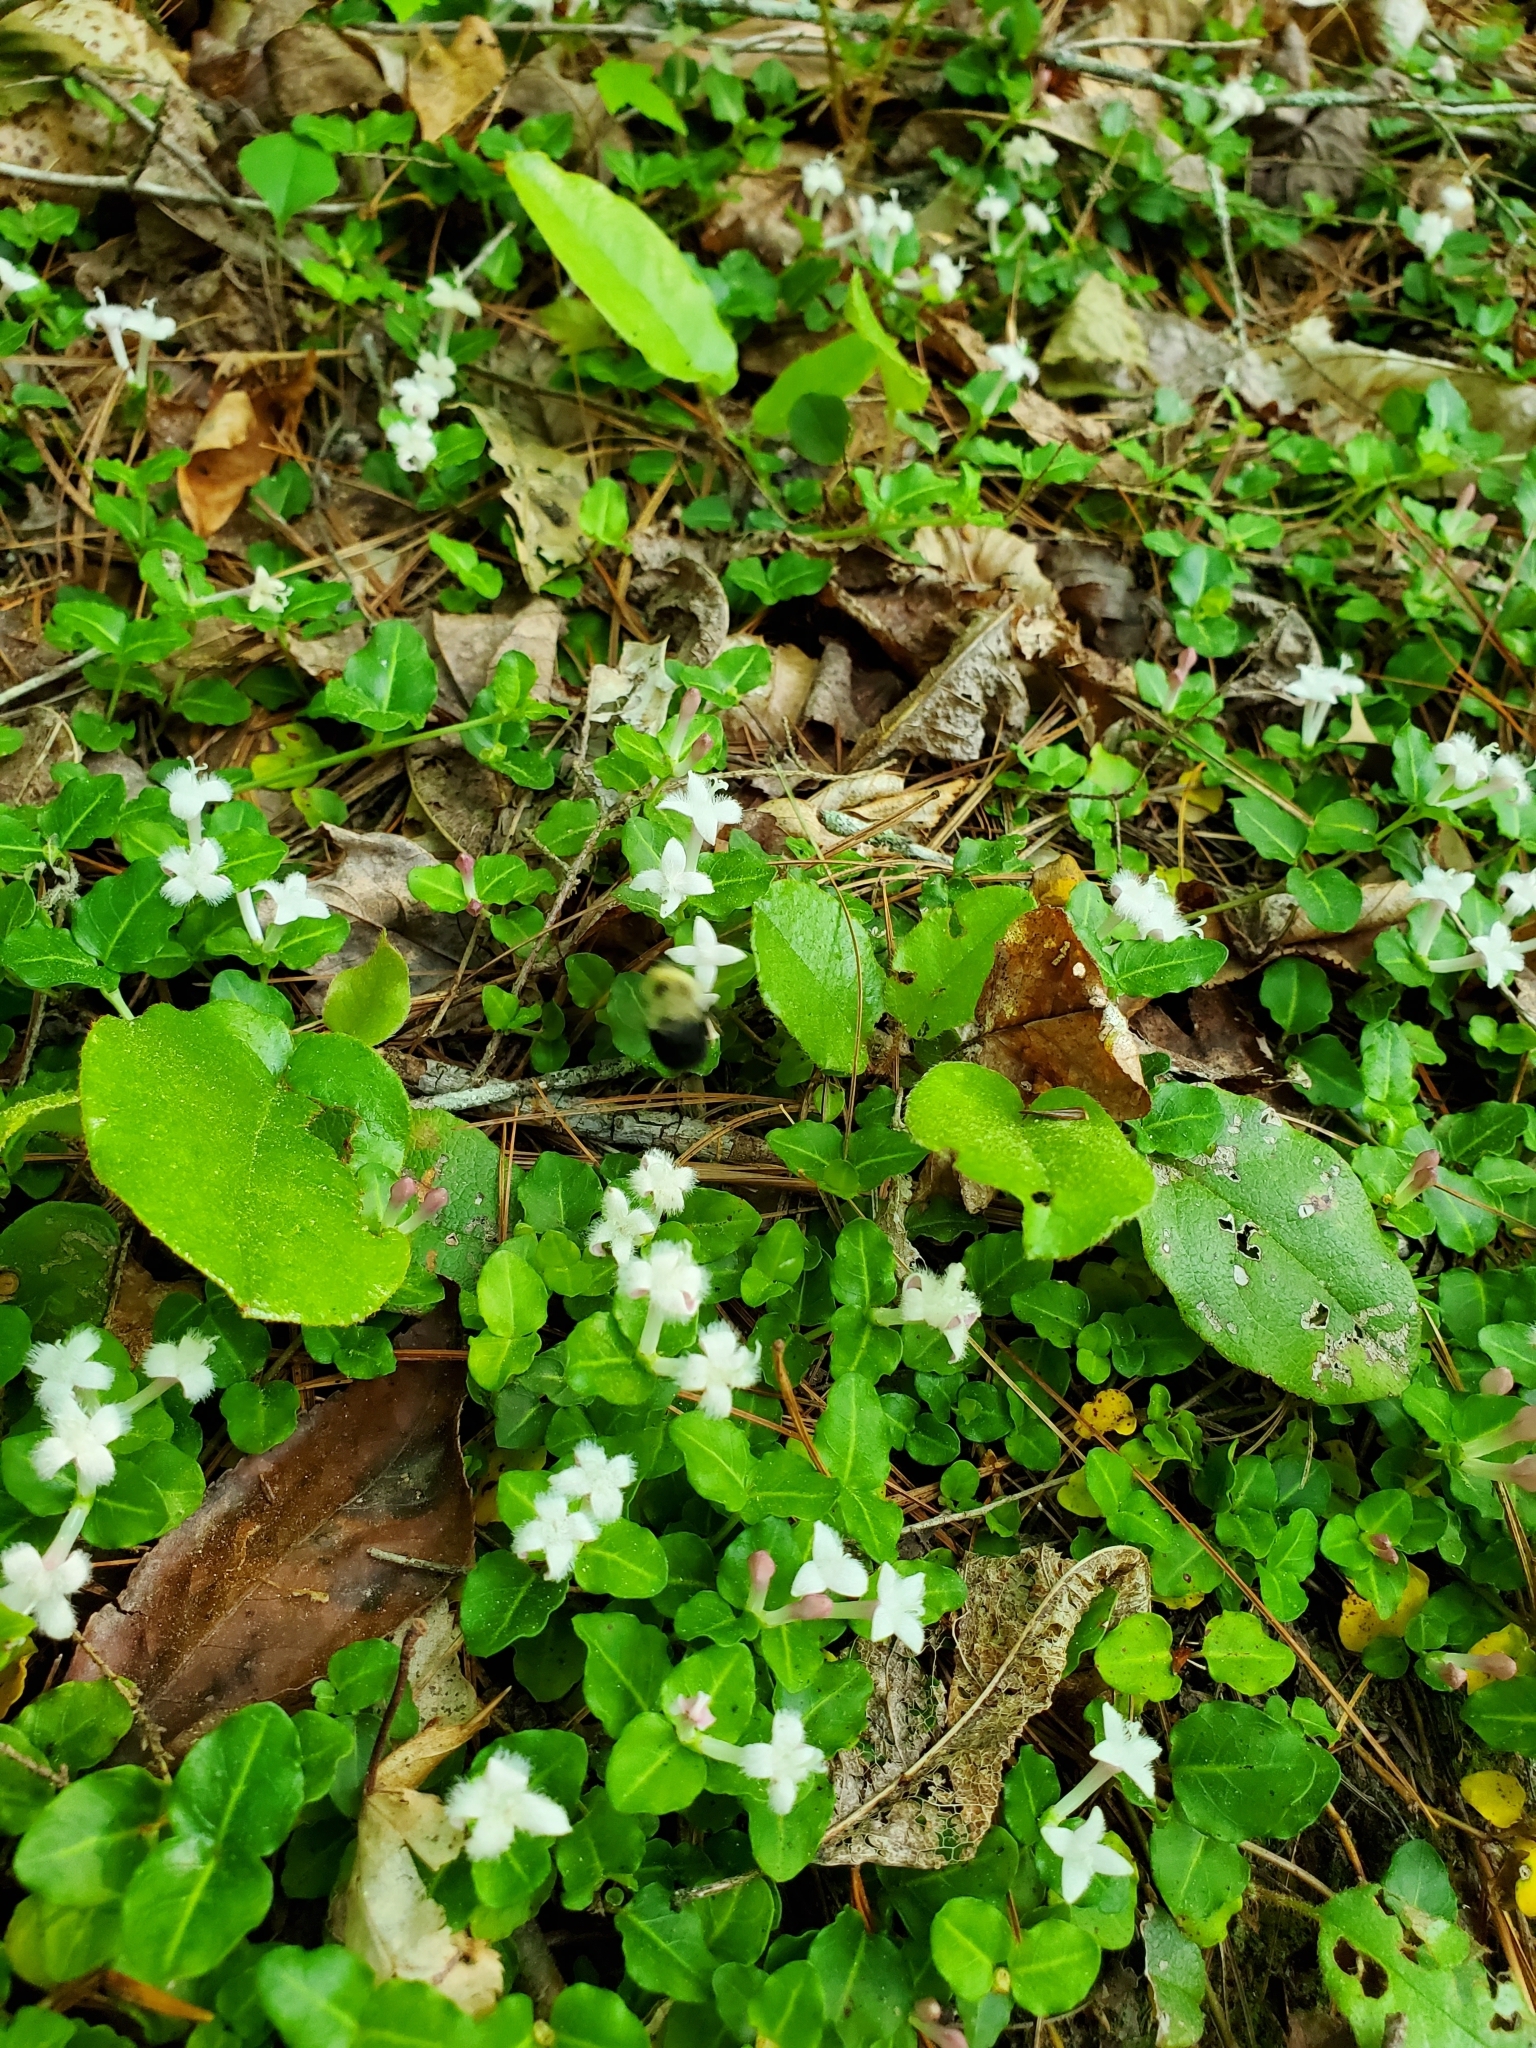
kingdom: Plantae
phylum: Tracheophyta
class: Magnoliopsida
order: Gentianales
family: Rubiaceae
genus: Mitchella
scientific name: Mitchella repens
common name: Partridge-berry
